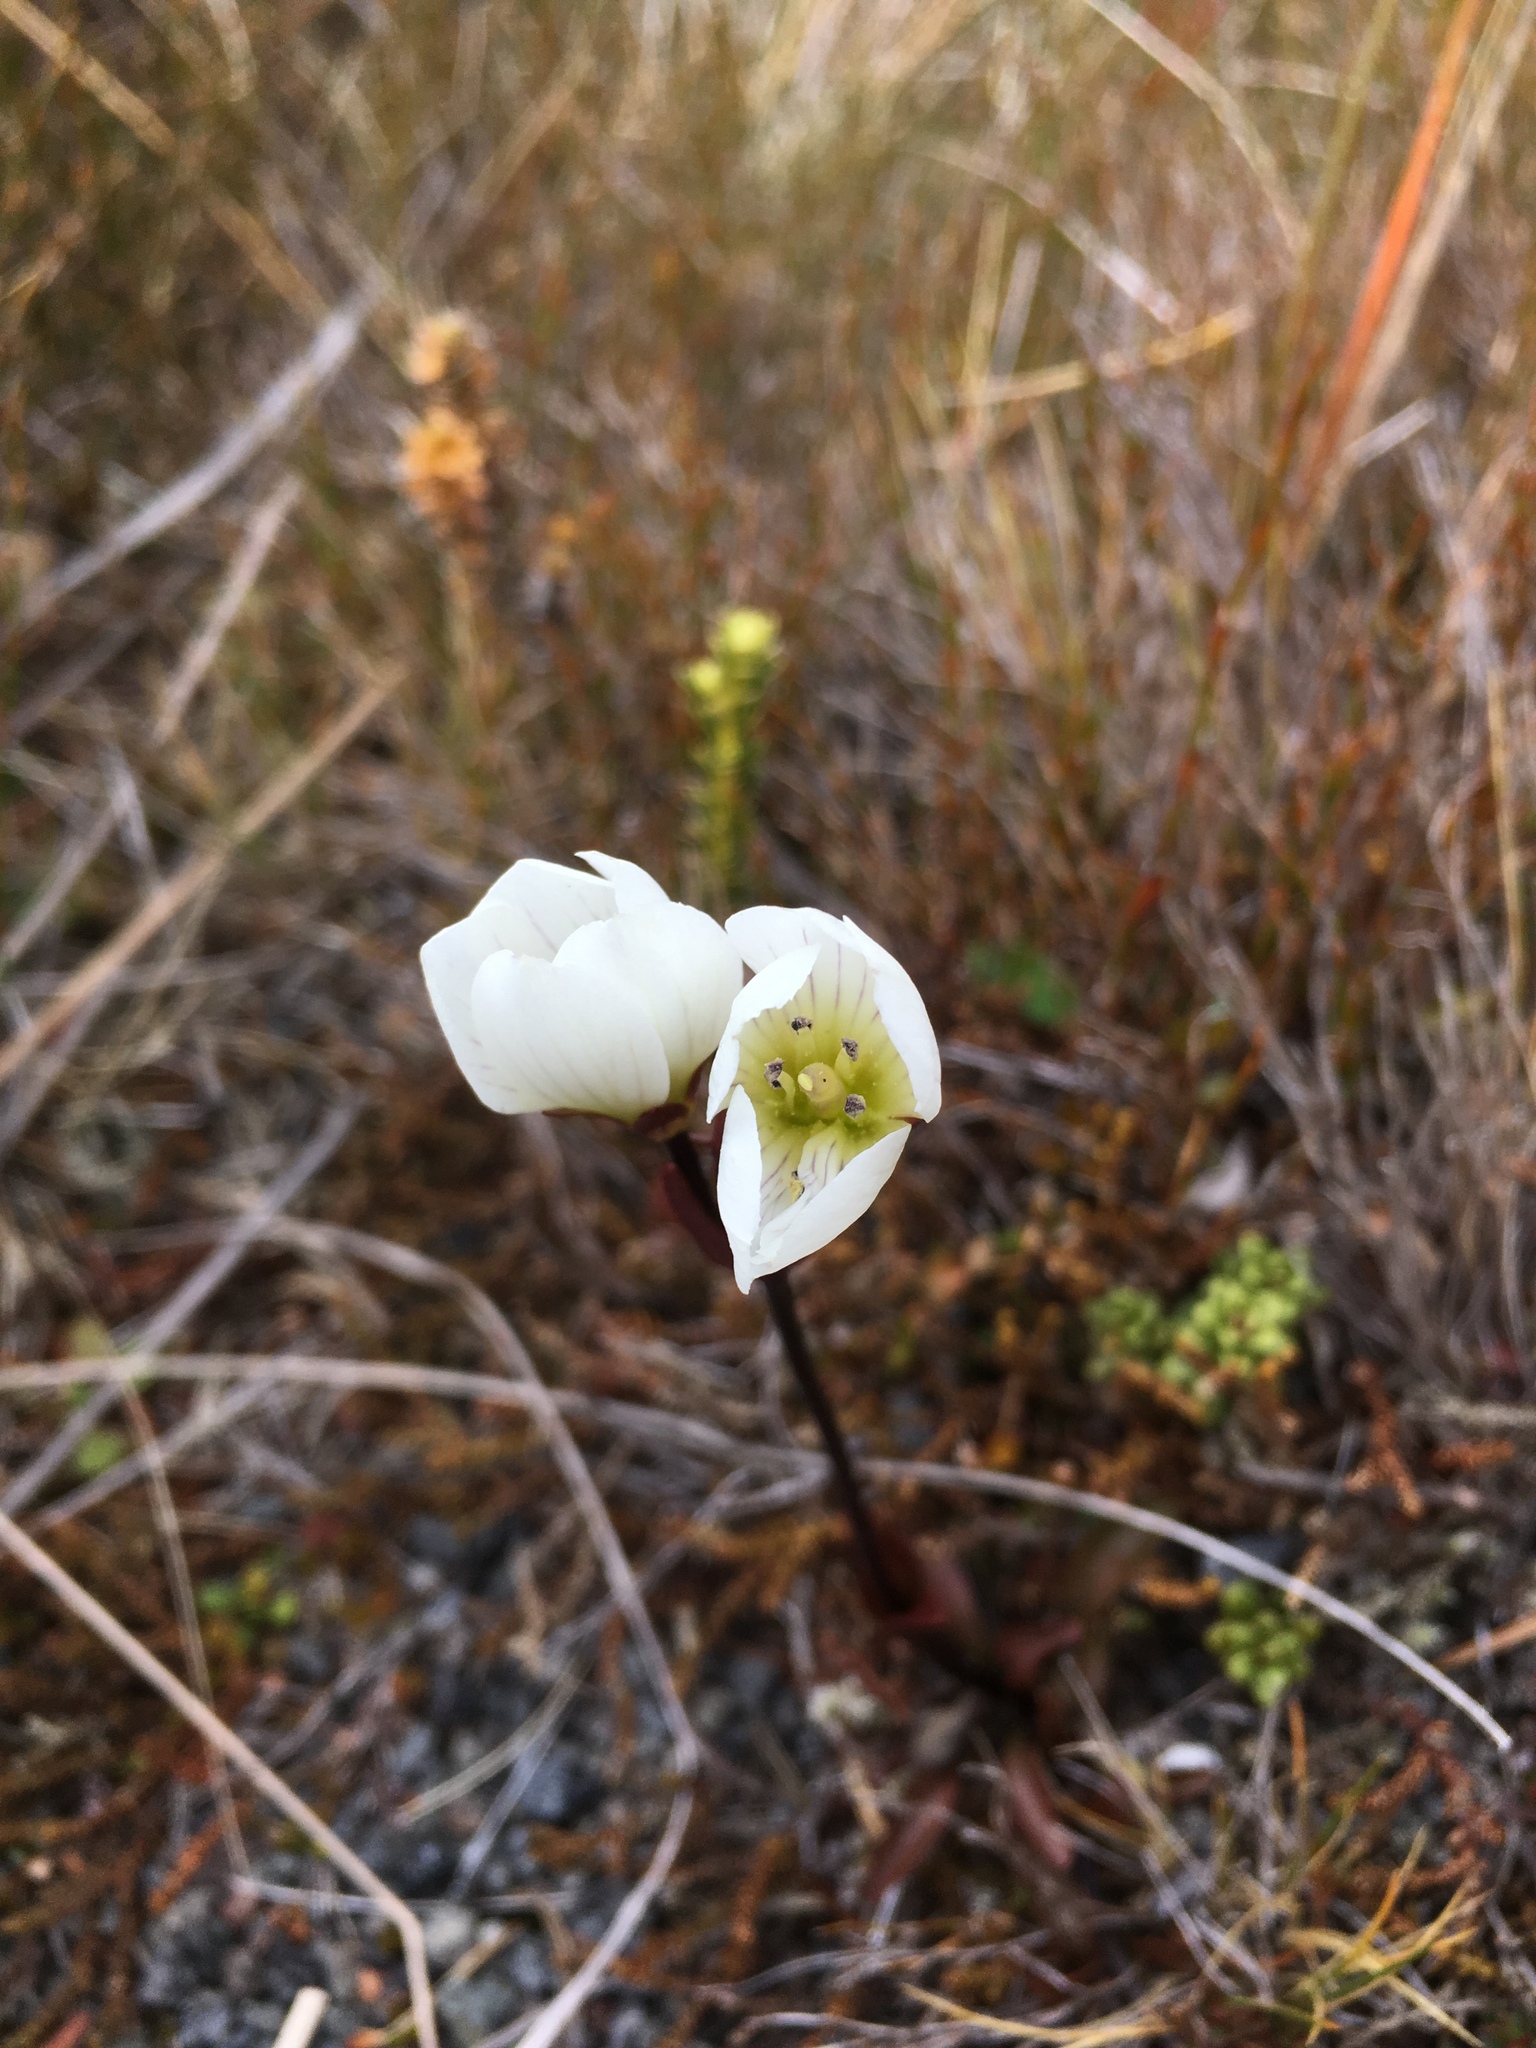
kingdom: Plantae
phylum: Tracheophyta
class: Magnoliopsida
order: Gentianales
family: Gentianaceae
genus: Gentianella
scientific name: Gentianella bellidifolia
